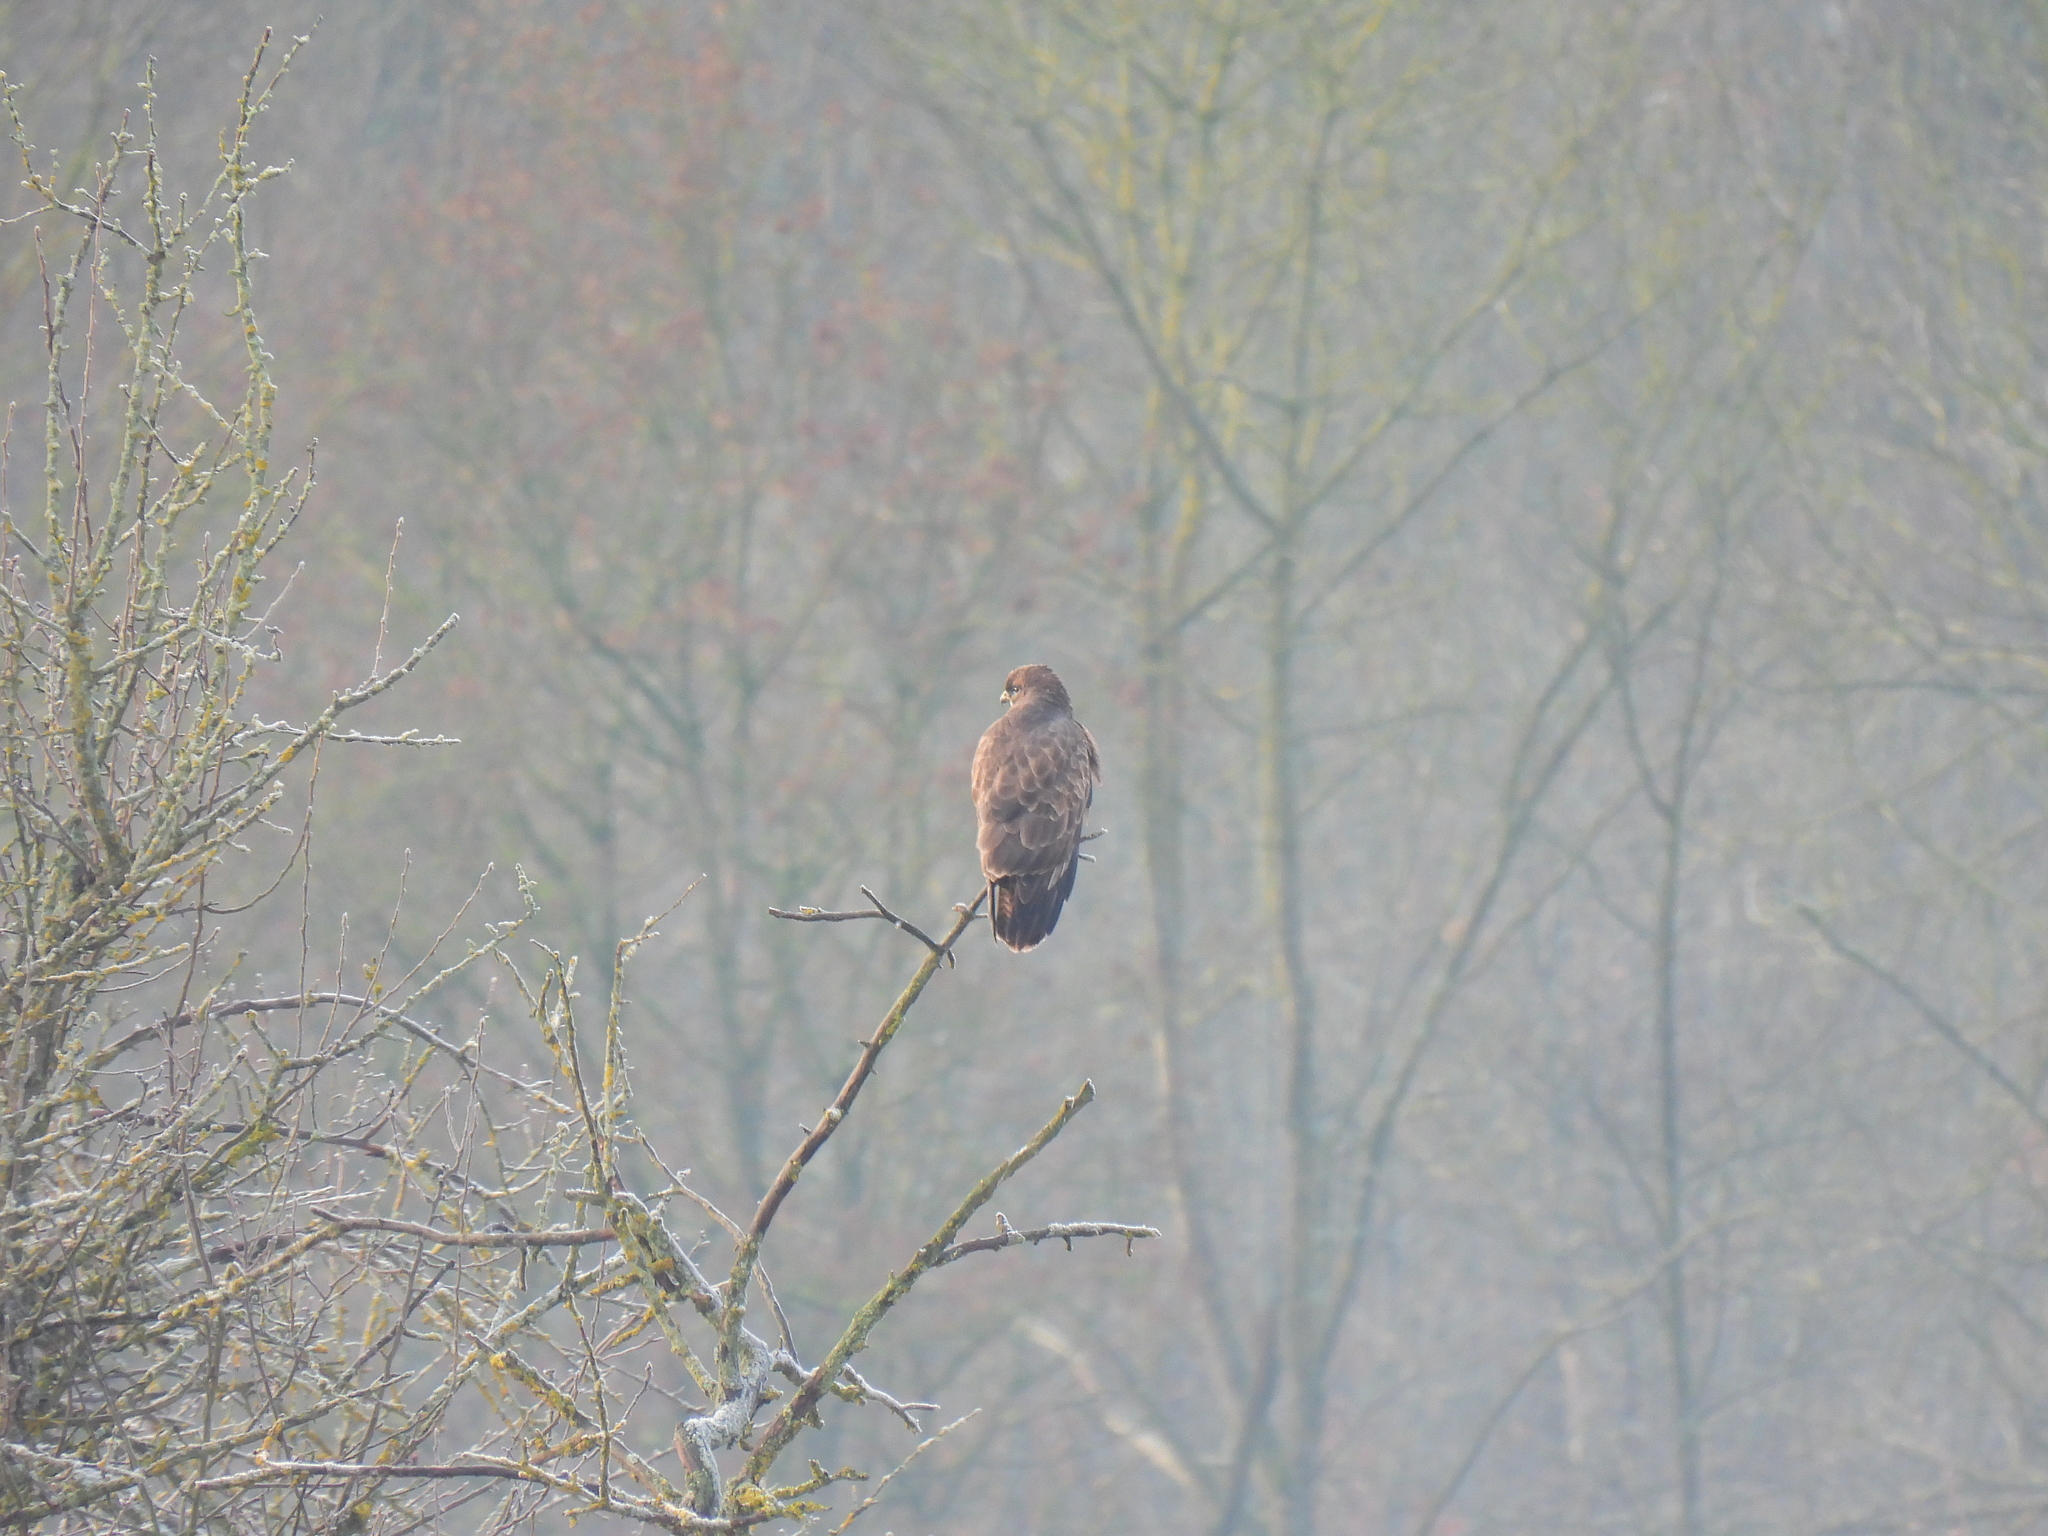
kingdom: Animalia
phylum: Chordata
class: Aves
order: Accipitriformes
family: Accipitridae
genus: Buteo
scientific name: Buteo buteo
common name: Common buzzard
